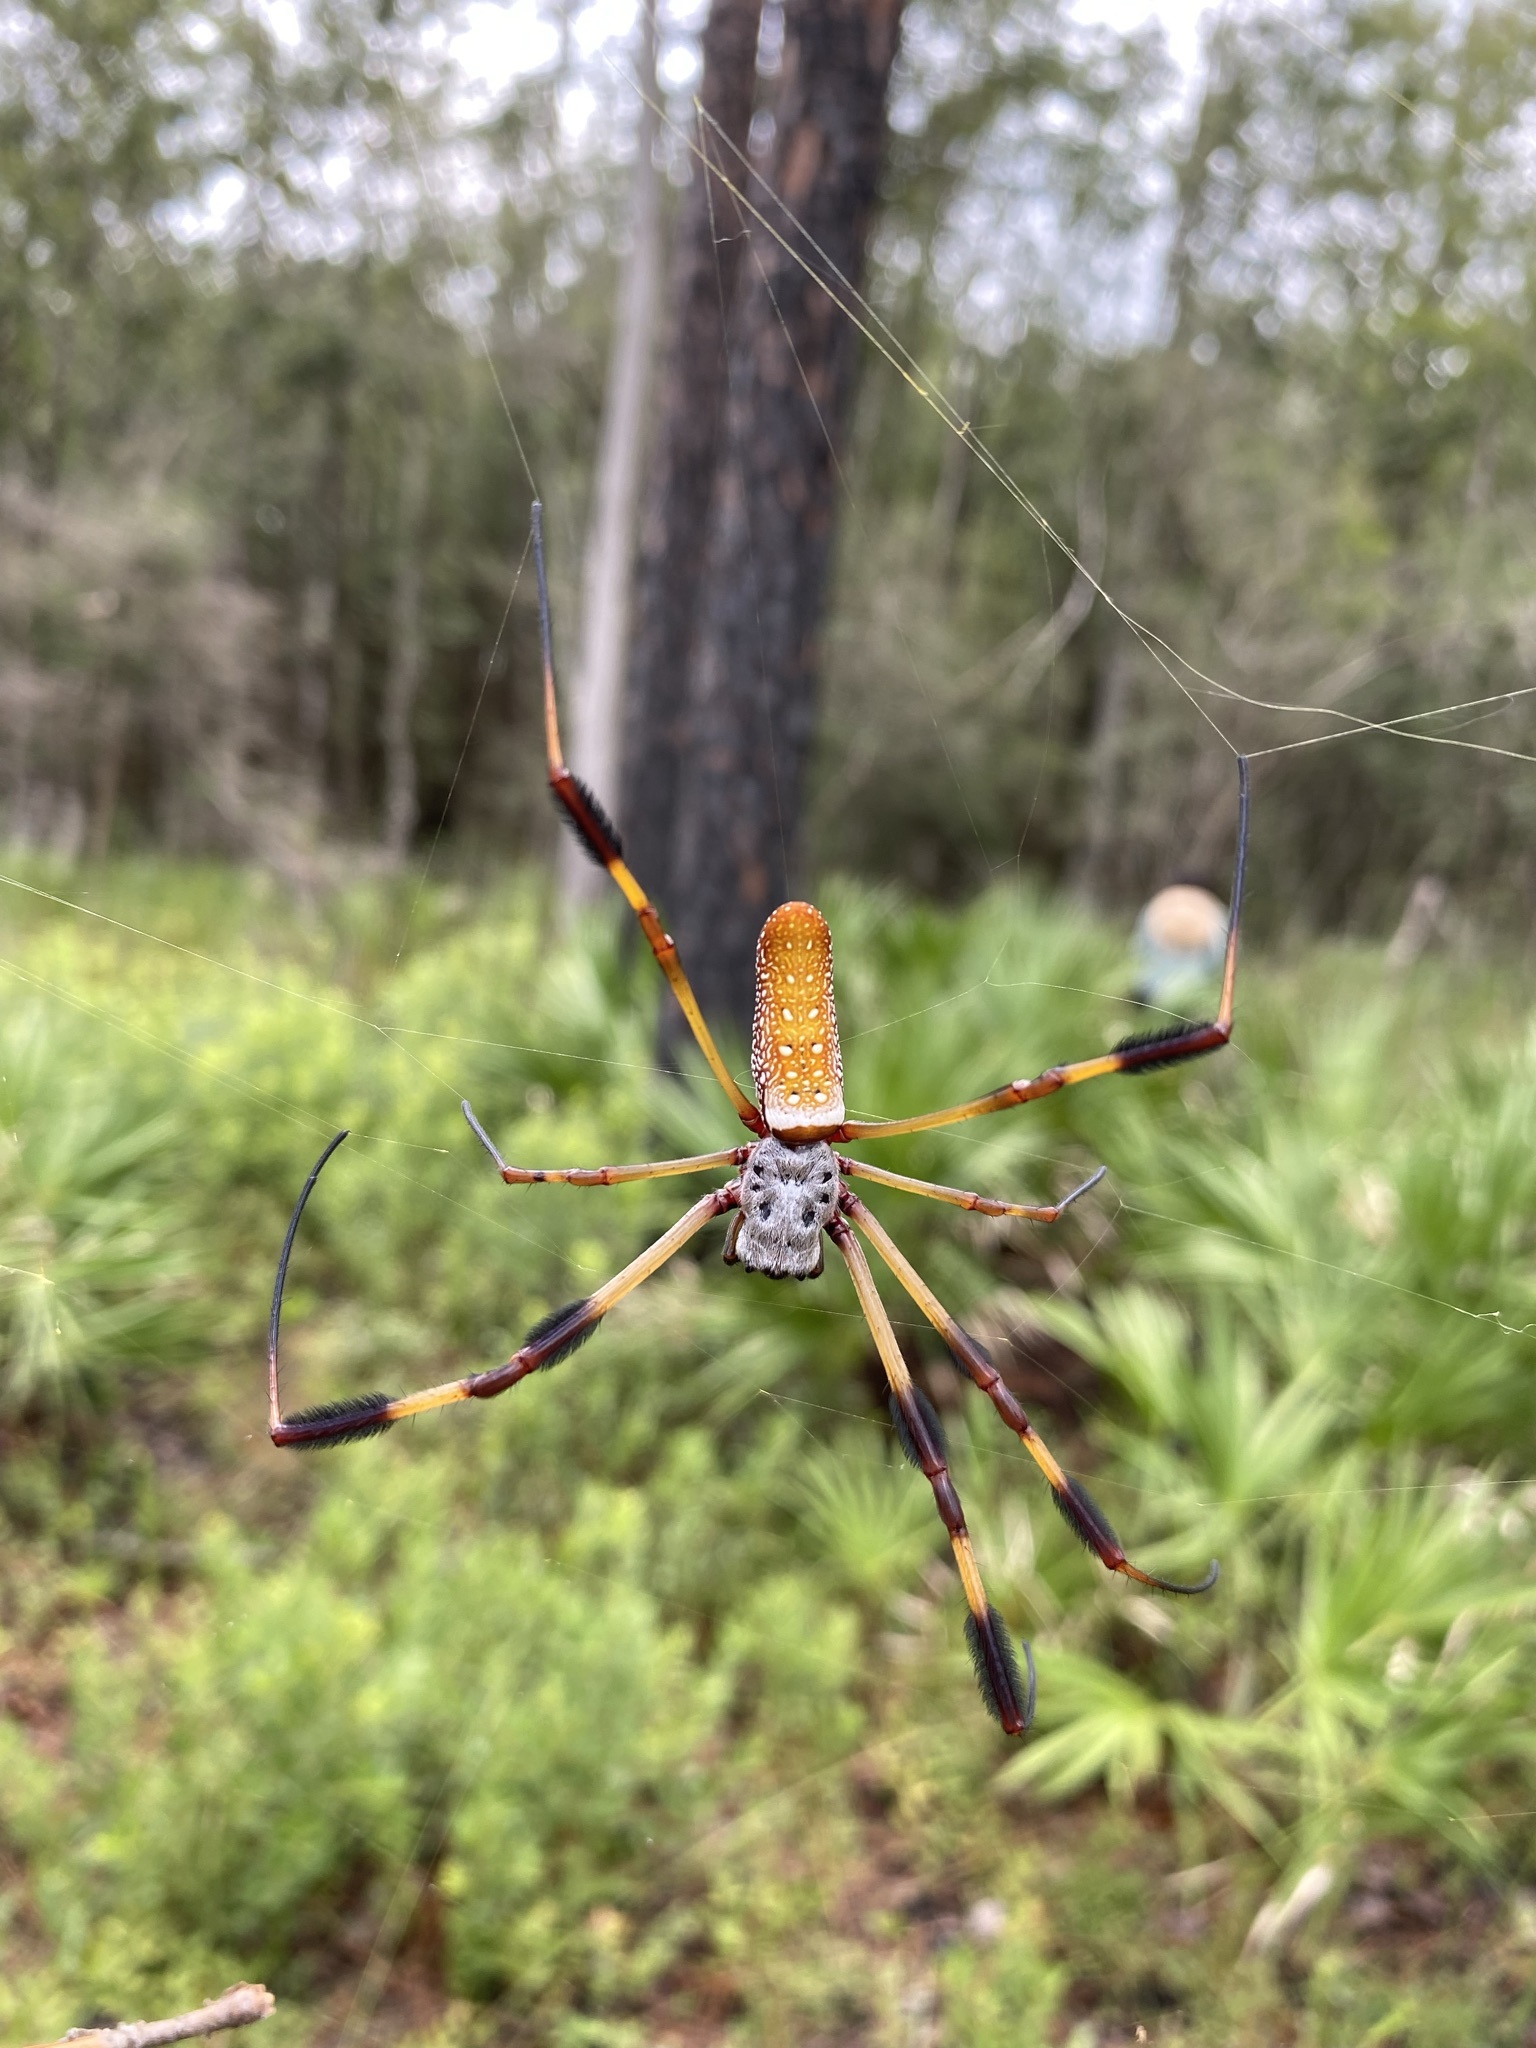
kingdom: Animalia
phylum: Arthropoda
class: Arachnida
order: Araneae
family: Araneidae
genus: Trichonephila
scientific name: Trichonephila clavipes
